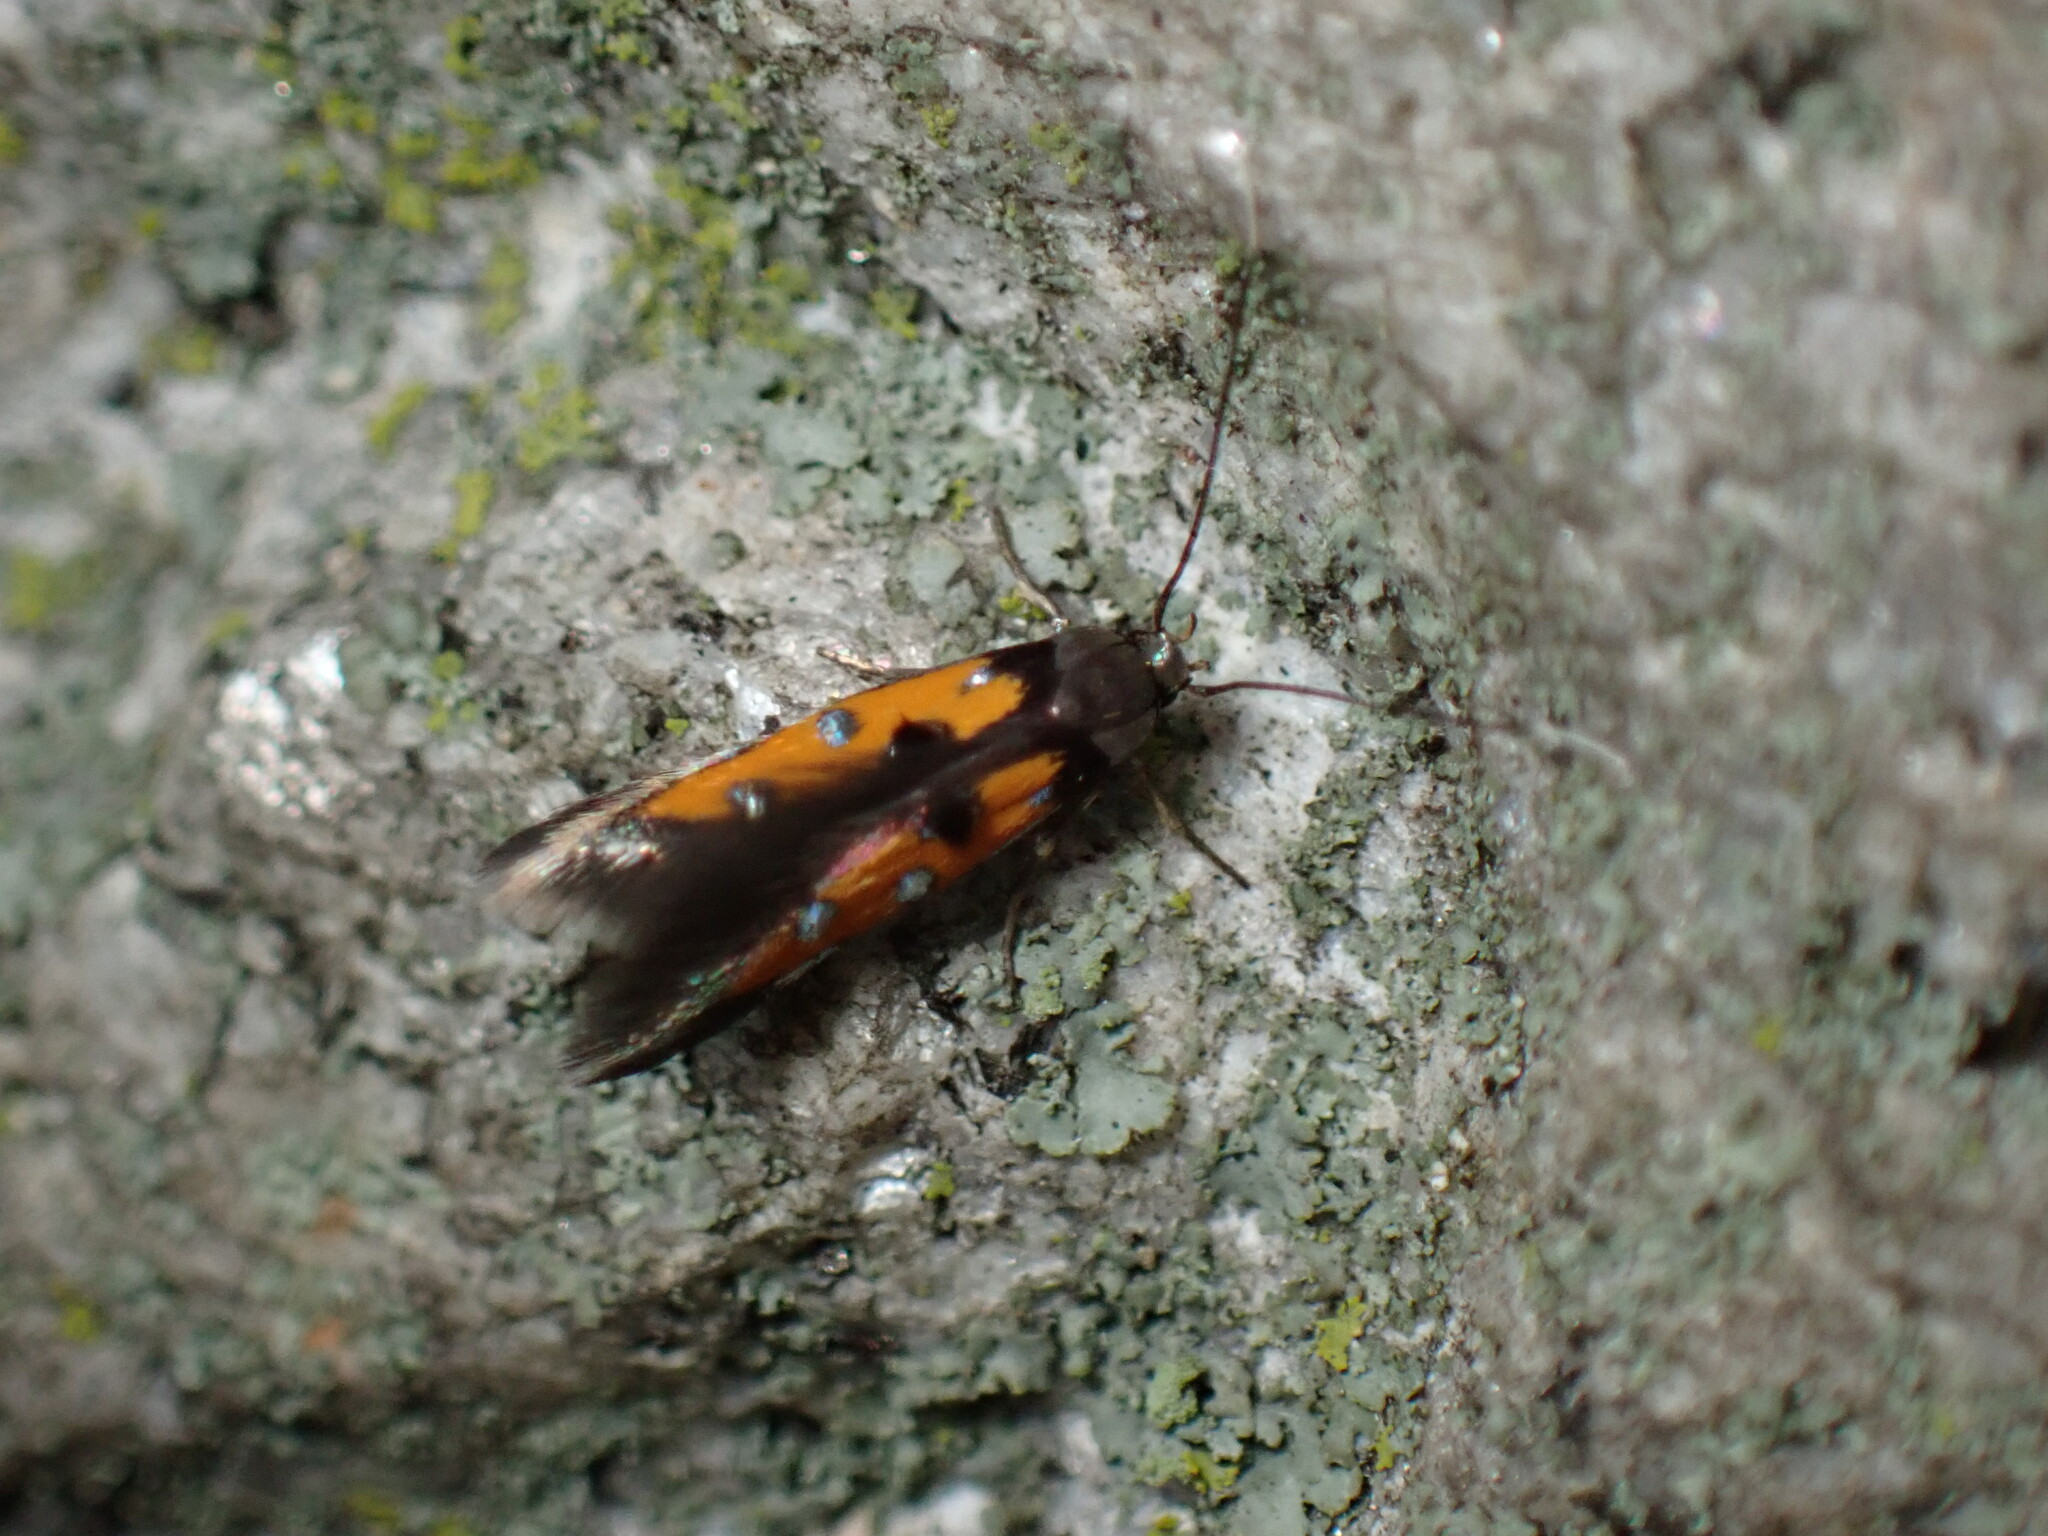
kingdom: Animalia
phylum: Arthropoda
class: Insecta
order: Lepidoptera
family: Elachistidae
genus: Chrysoclista
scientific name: Chrysoclista linneela
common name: Lime cosmet
